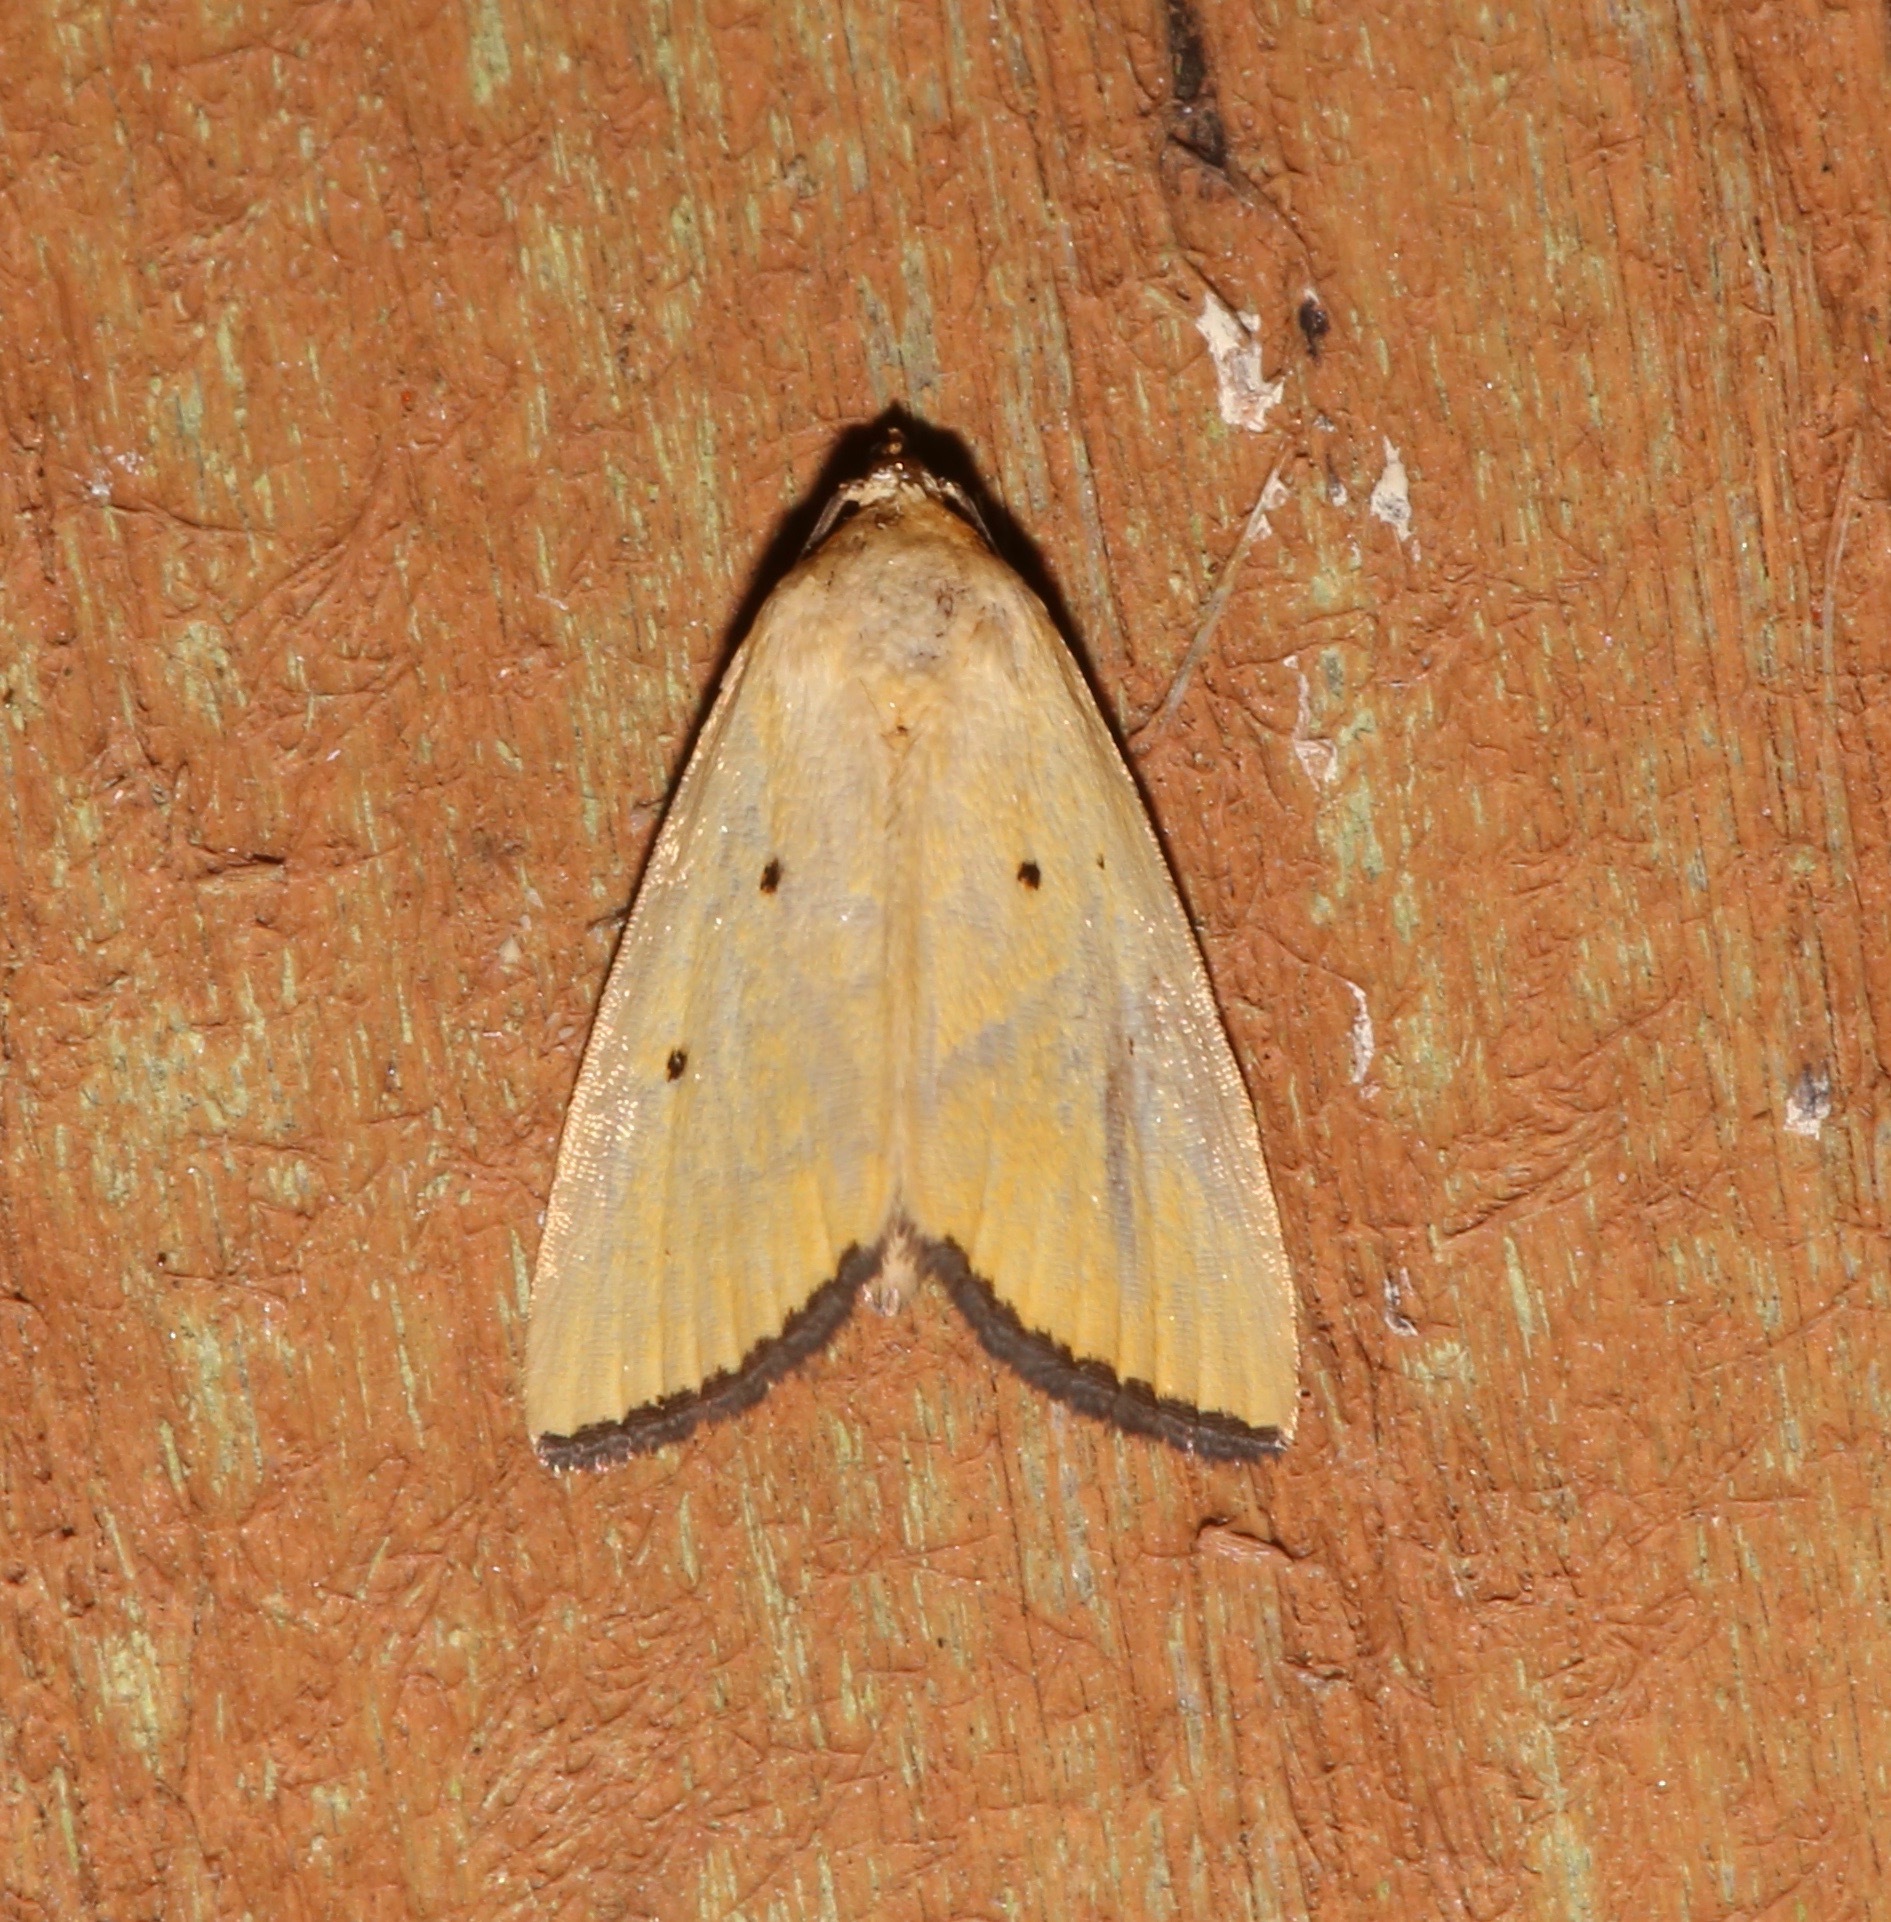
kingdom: Animalia
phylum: Arthropoda
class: Insecta
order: Lepidoptera
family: Noctuidae
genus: Marimatha
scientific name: Marimatha nigrofimbria
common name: Black-bordered lemon moth
